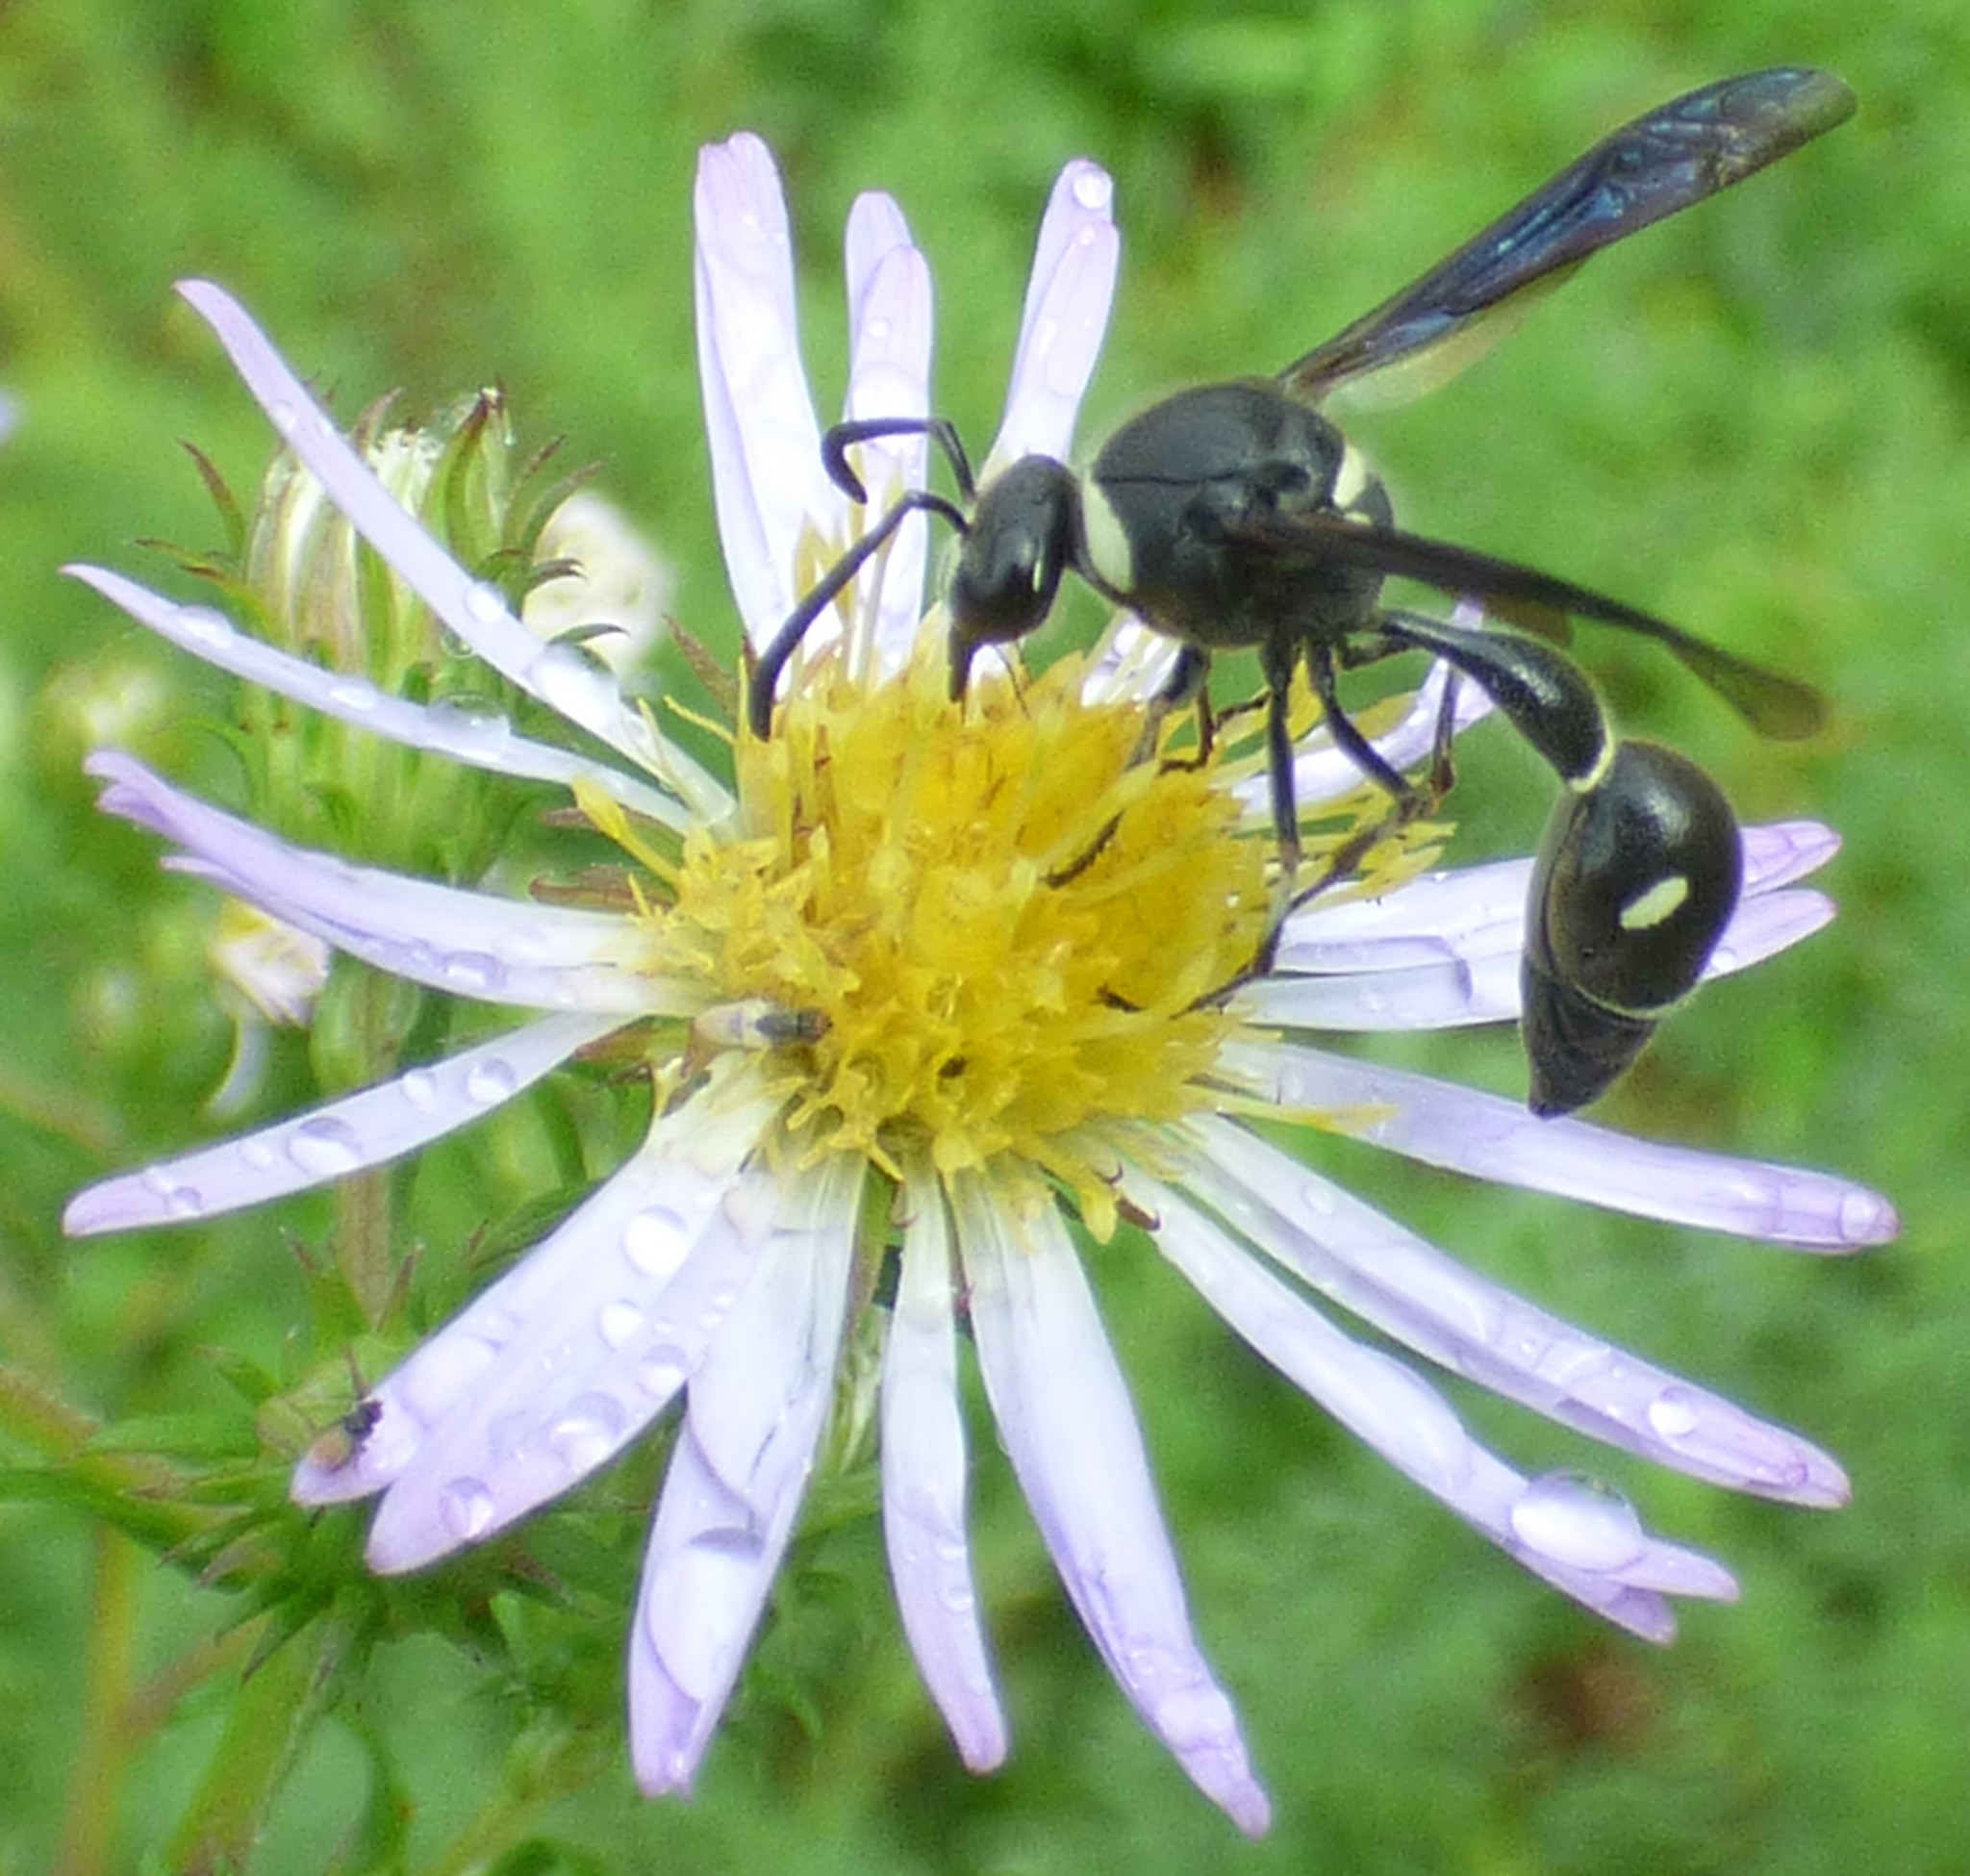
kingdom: Animalia
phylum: Arthropoda
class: Insecta
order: Hymenoptera
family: Vespidae
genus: Eumenes
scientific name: Eumenes fraternus
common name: Fraternal potter wasp
